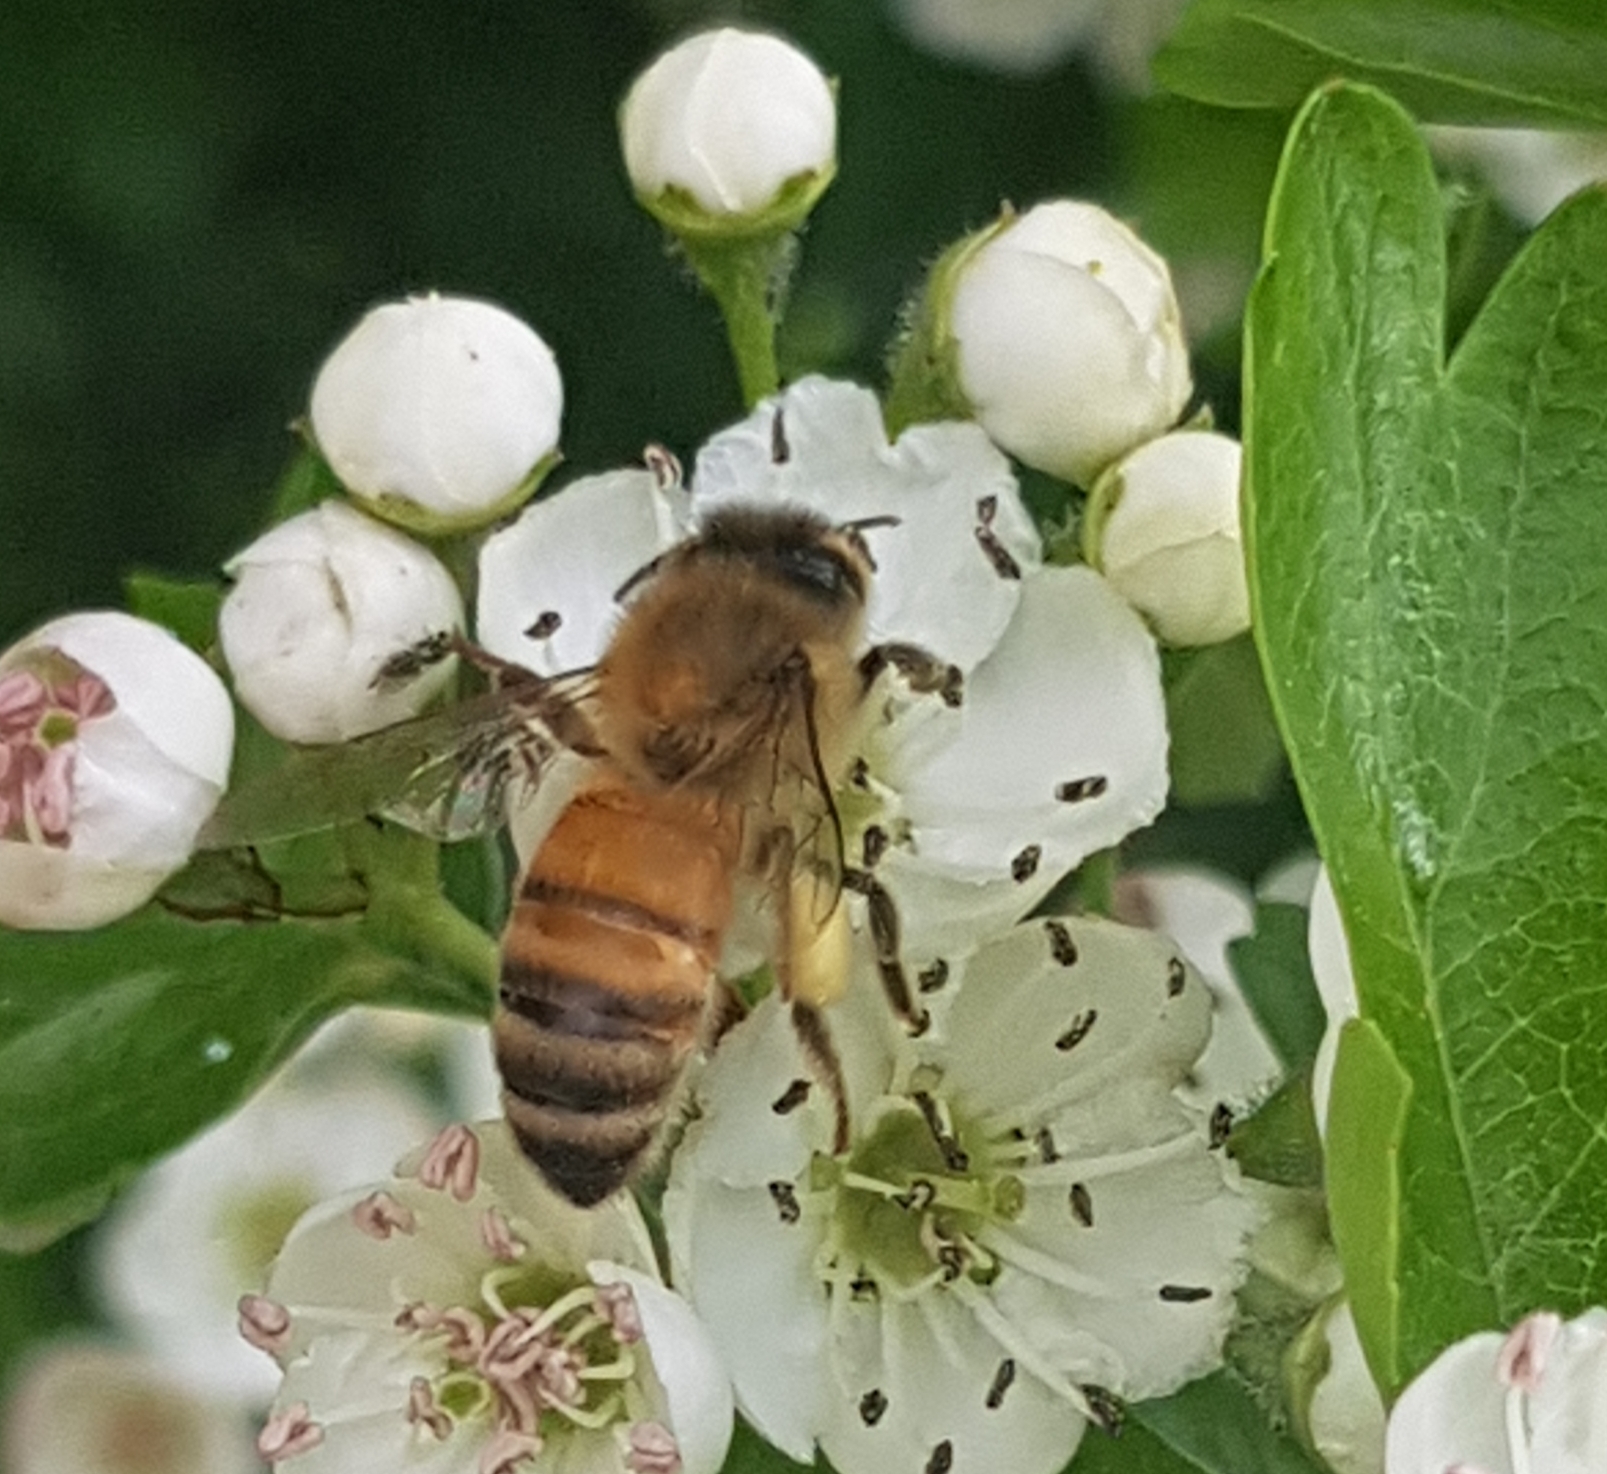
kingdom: Animalia
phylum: Arthropoda
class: Insecta
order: Hymenoptera
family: Apidae
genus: Apis
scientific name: Apis mellifera
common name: Honey bee
